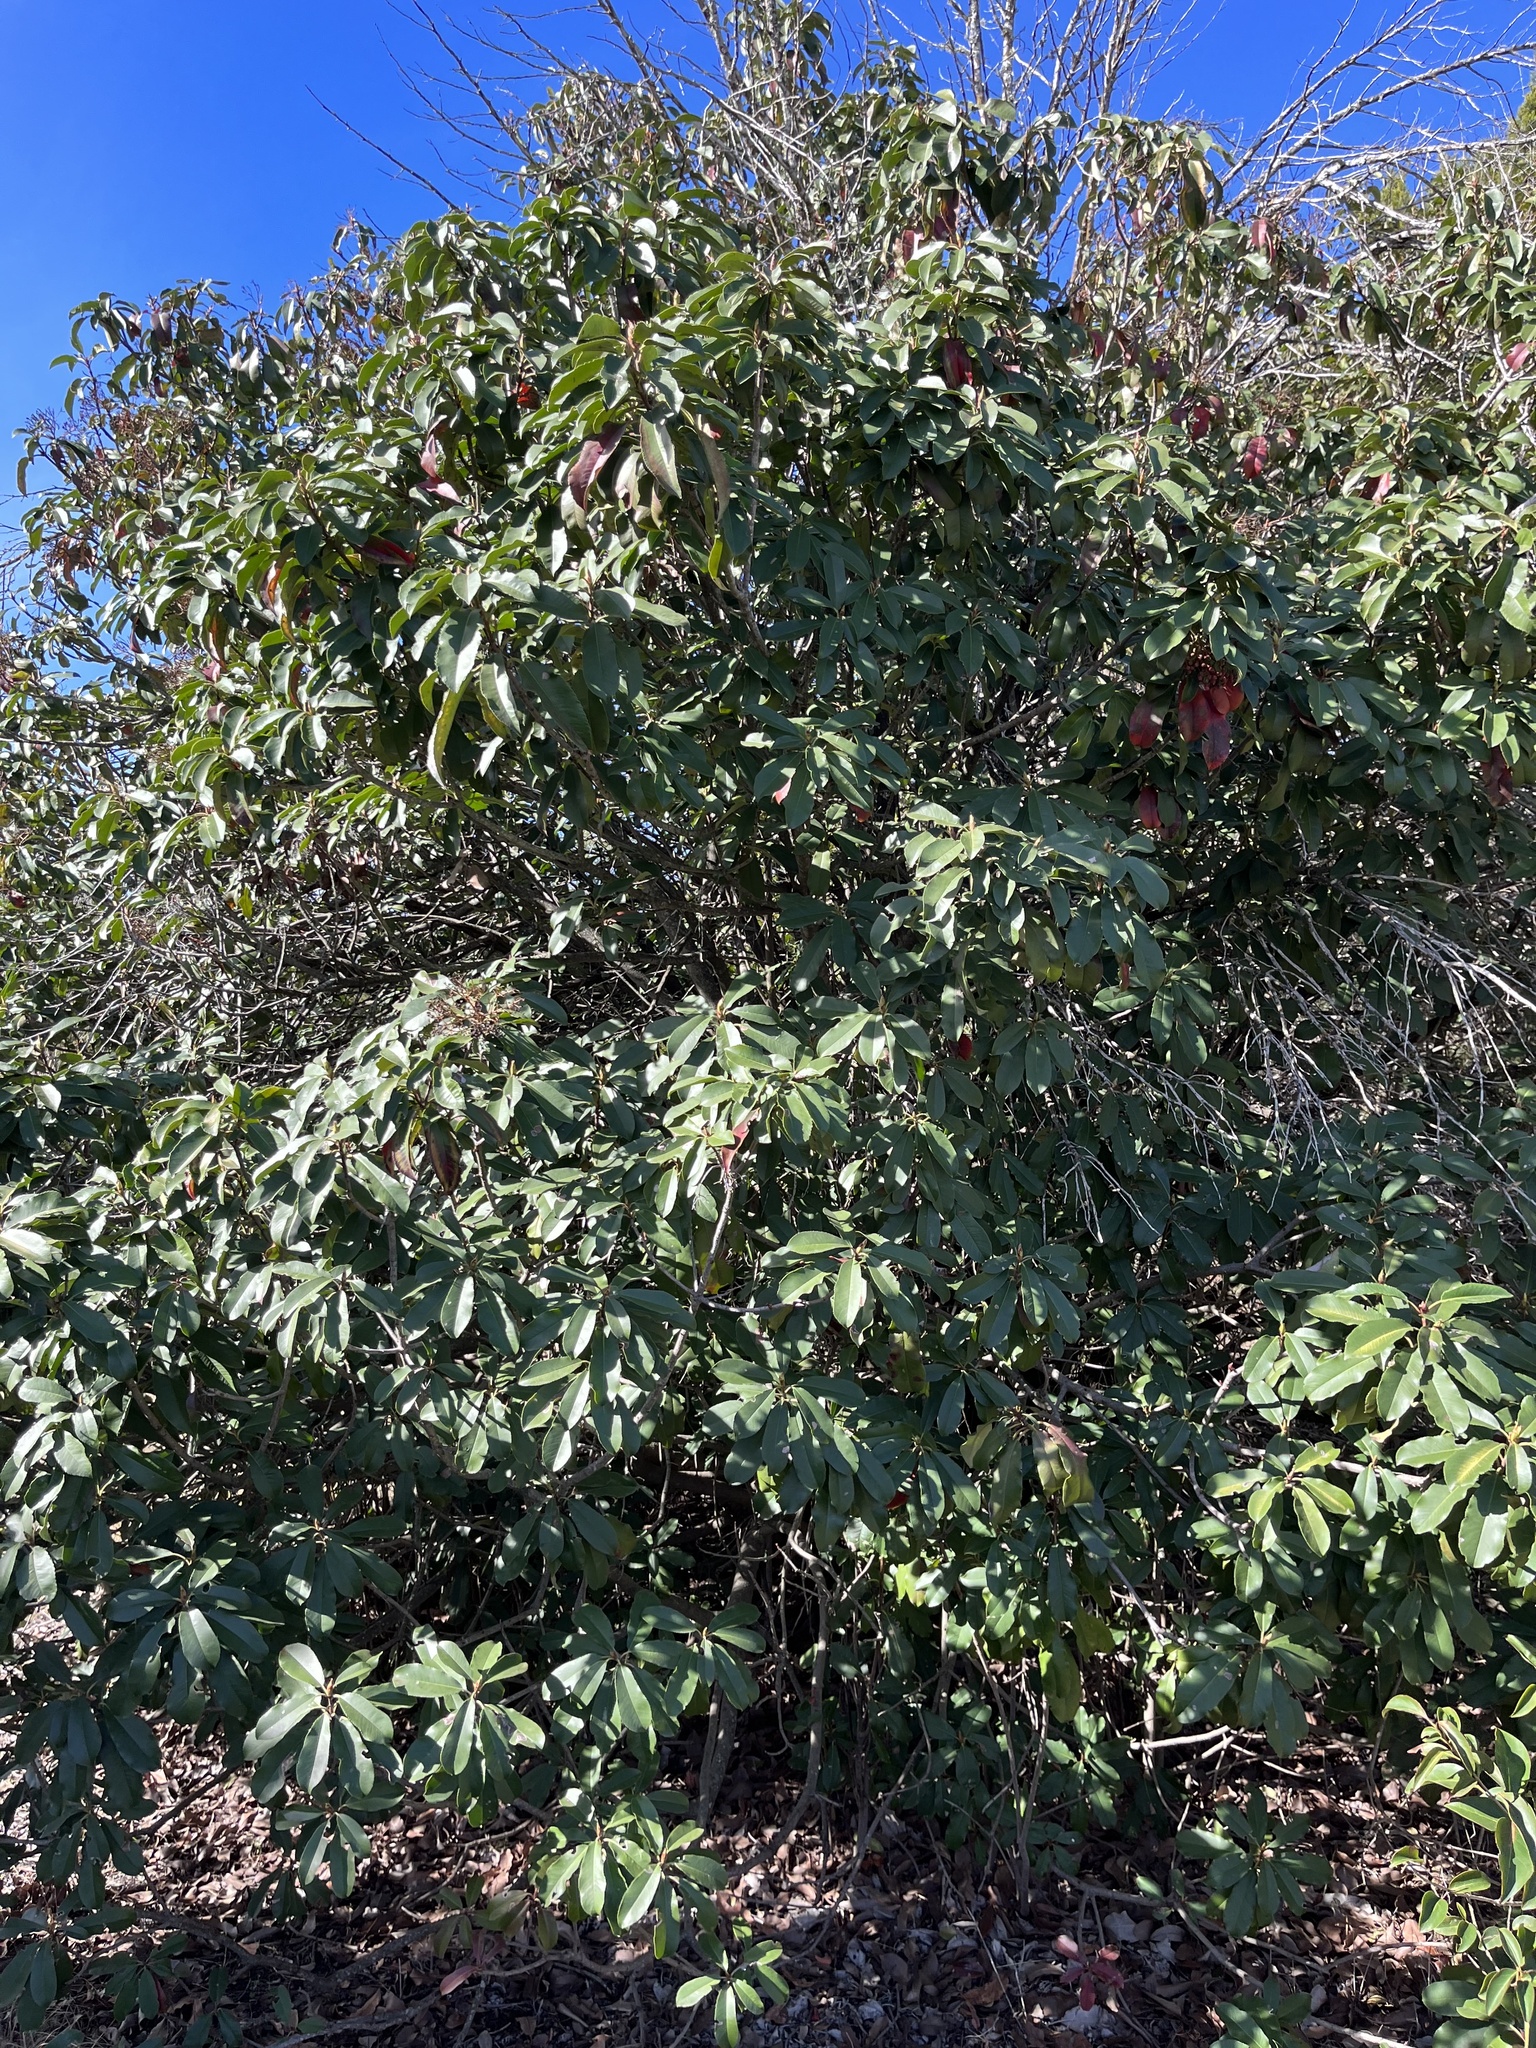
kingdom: Plantae
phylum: Tracheophyta
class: Magnoliopsida
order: Rosales
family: Rosaceae
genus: Photinia
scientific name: Photinia serratifolia
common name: Taiwanese photinia
